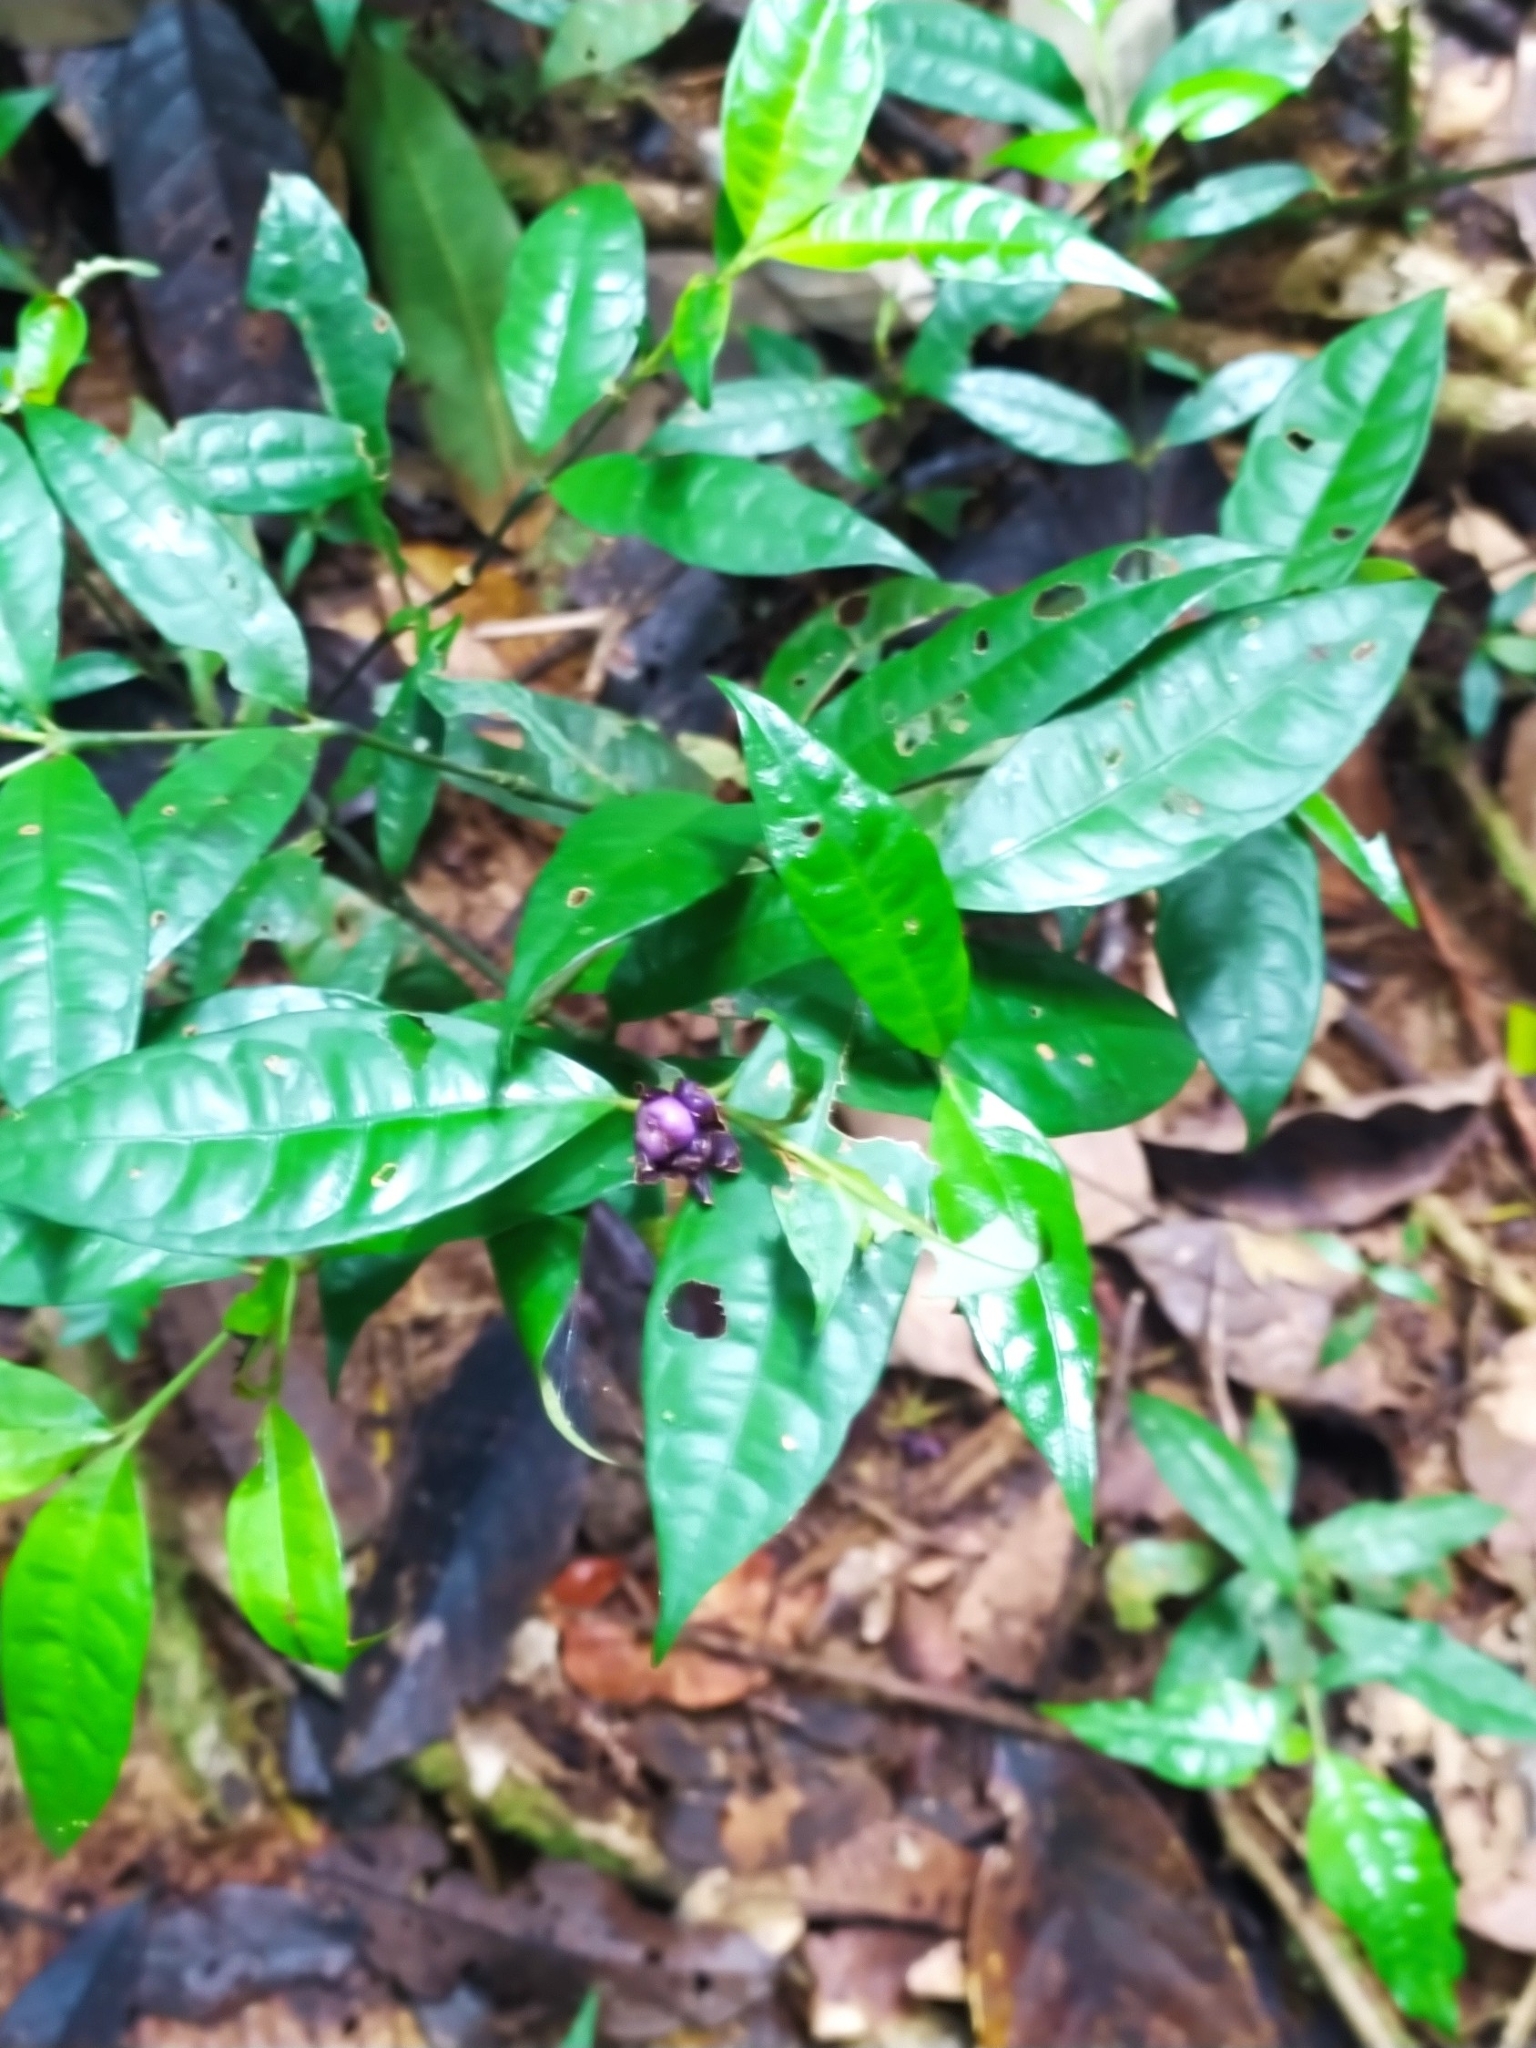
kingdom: Plantae
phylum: Tracheophyta
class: Magnoliopsida
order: Gentianales
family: Rubiaceae
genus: Palicourea
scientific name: Palicourea oblonga
